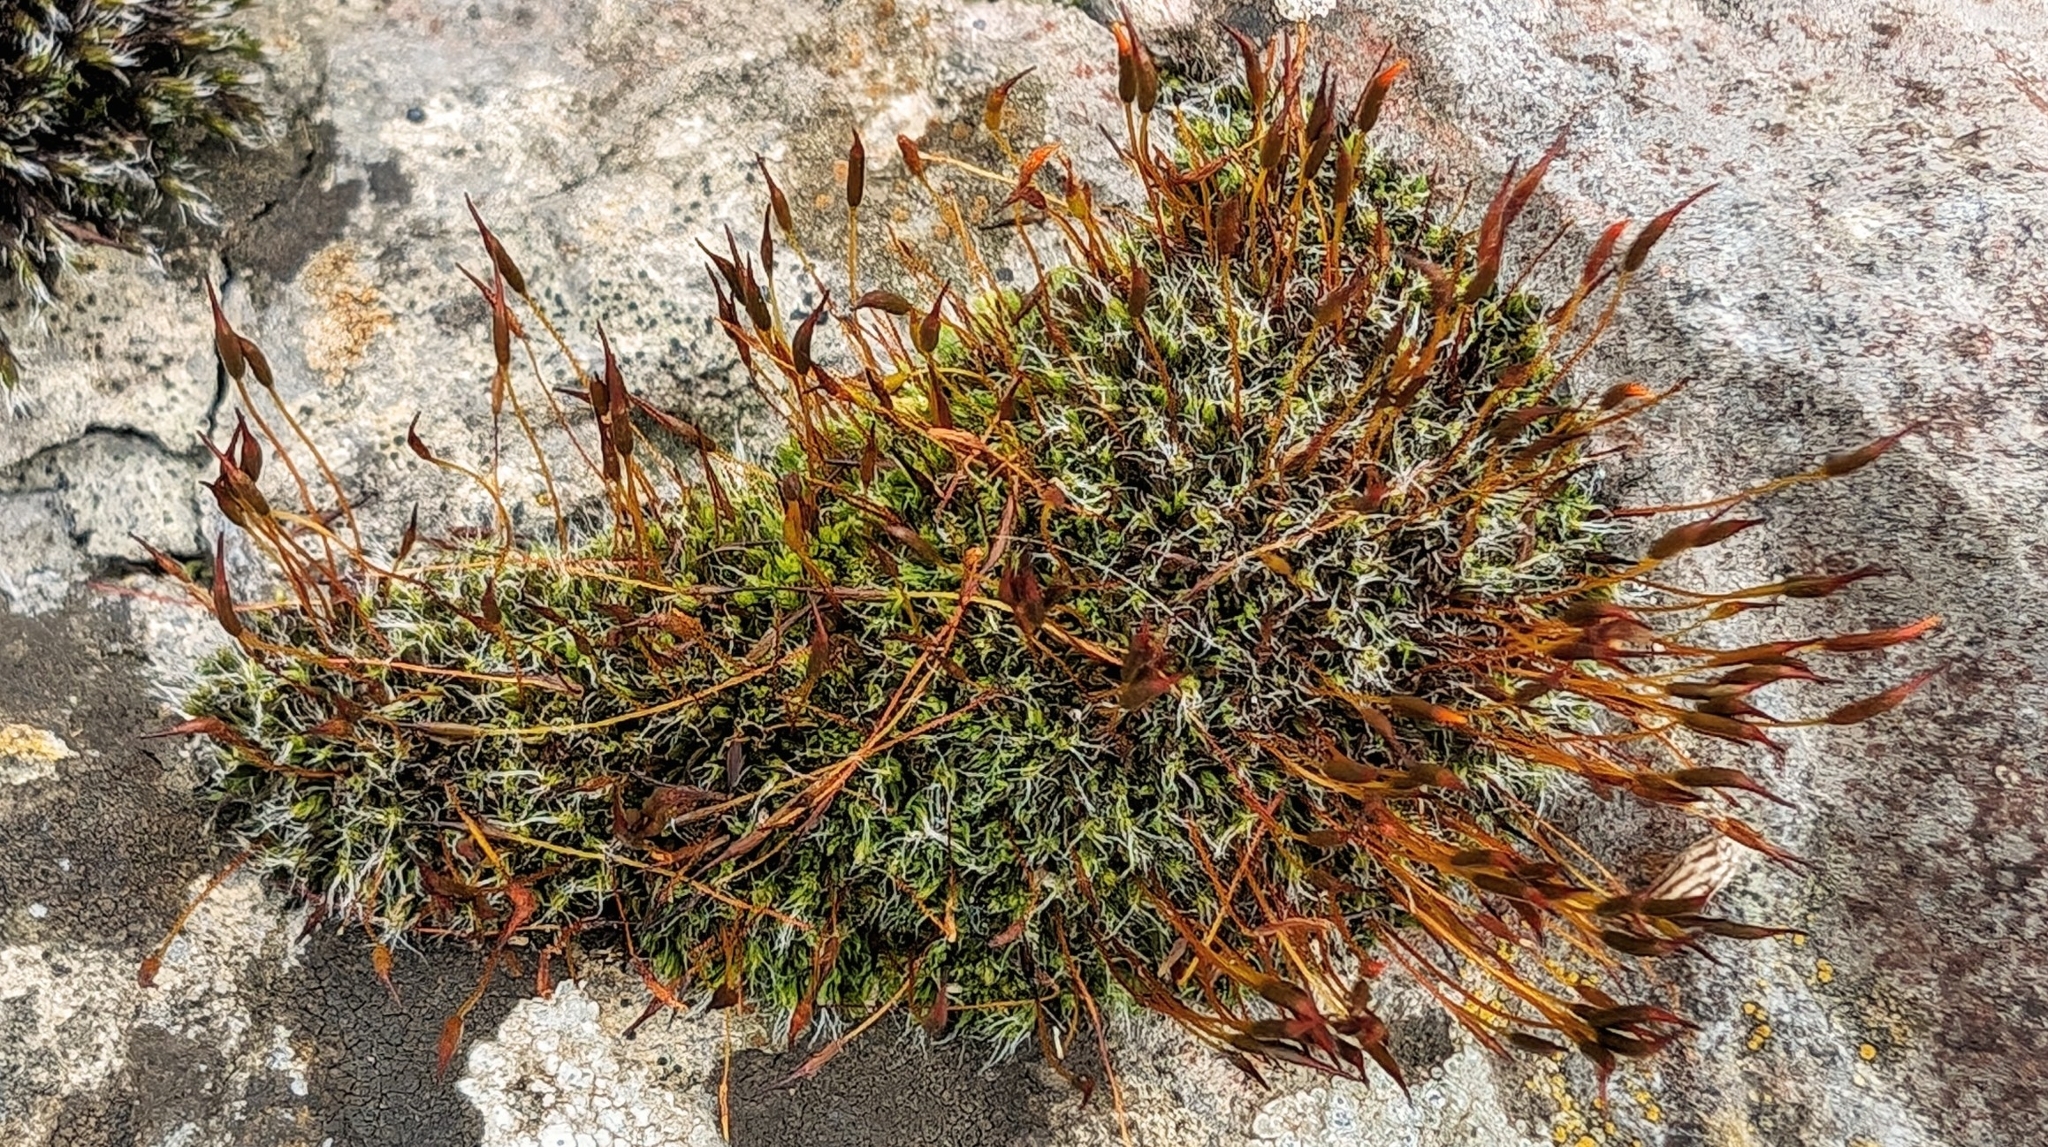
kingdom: Plantae
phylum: Bryophyta
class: Bryopsida
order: Pottiales
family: Pottiaceae
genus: Tortula
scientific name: Tortula muralis
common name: Wall screw-moss
